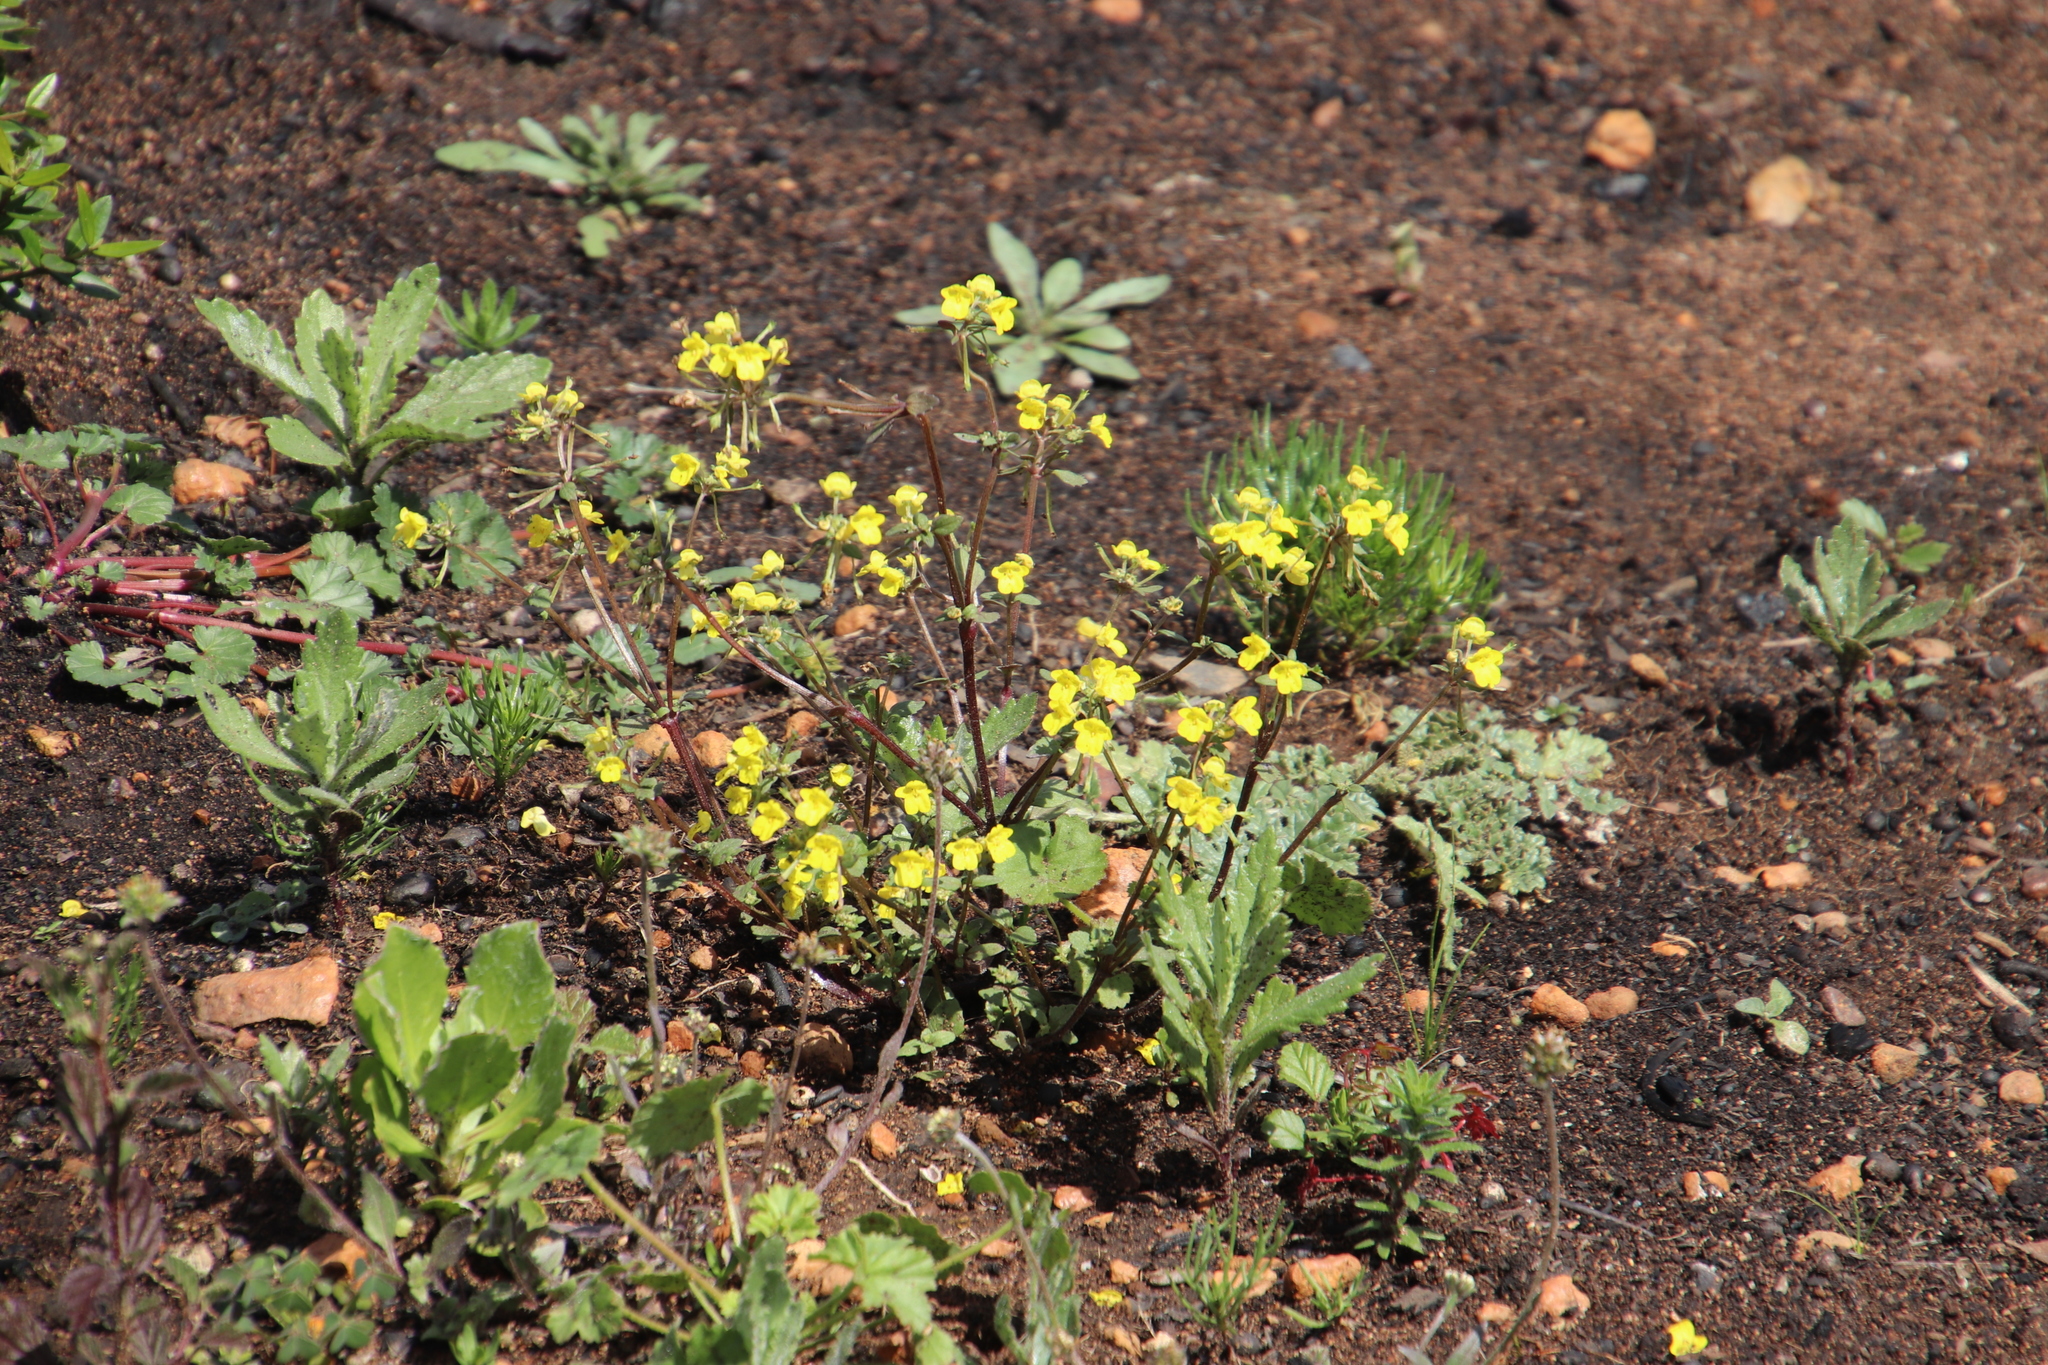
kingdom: Plantae
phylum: Tracheophyta
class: Magnoliopsida
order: Lamiales
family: Scrophulariaceae
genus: Hemimeris
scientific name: Hemimeris racemosa
